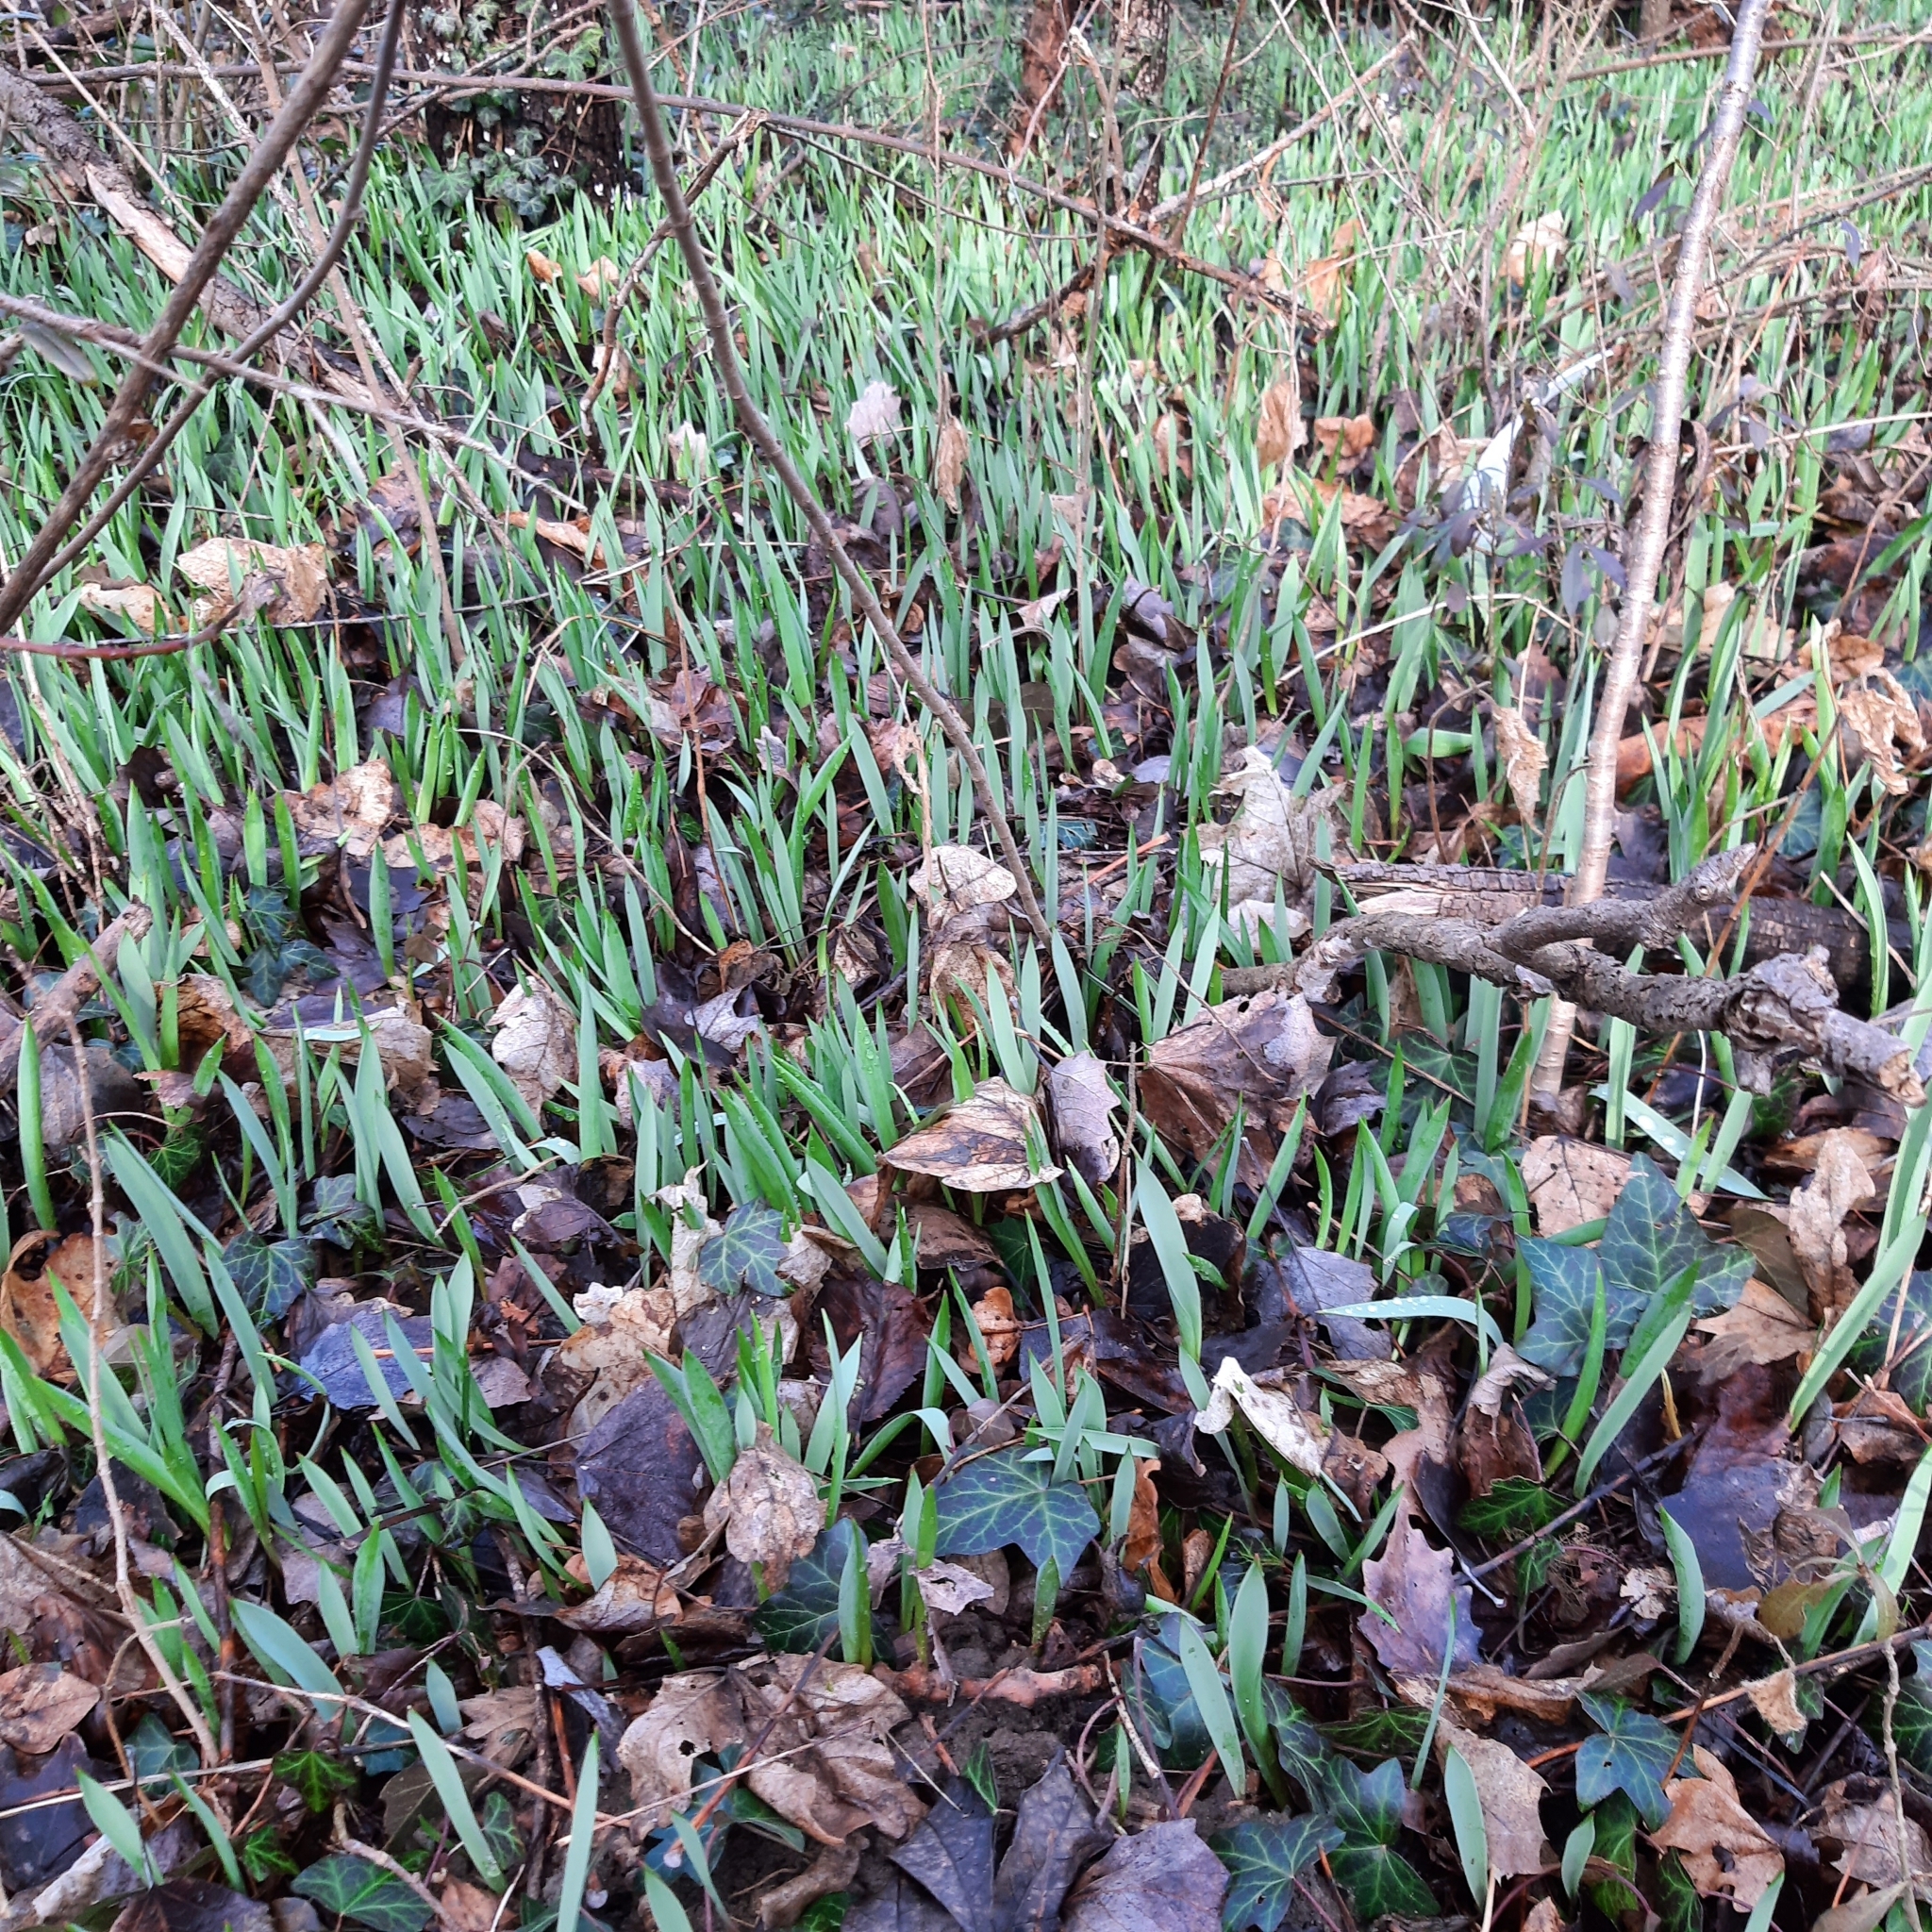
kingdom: Plantae
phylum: Tracheophyta
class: Liliopsida
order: Liliales
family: Liliaceae
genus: Tulipa
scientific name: Tulipa sylvestris
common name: Wild tulip
